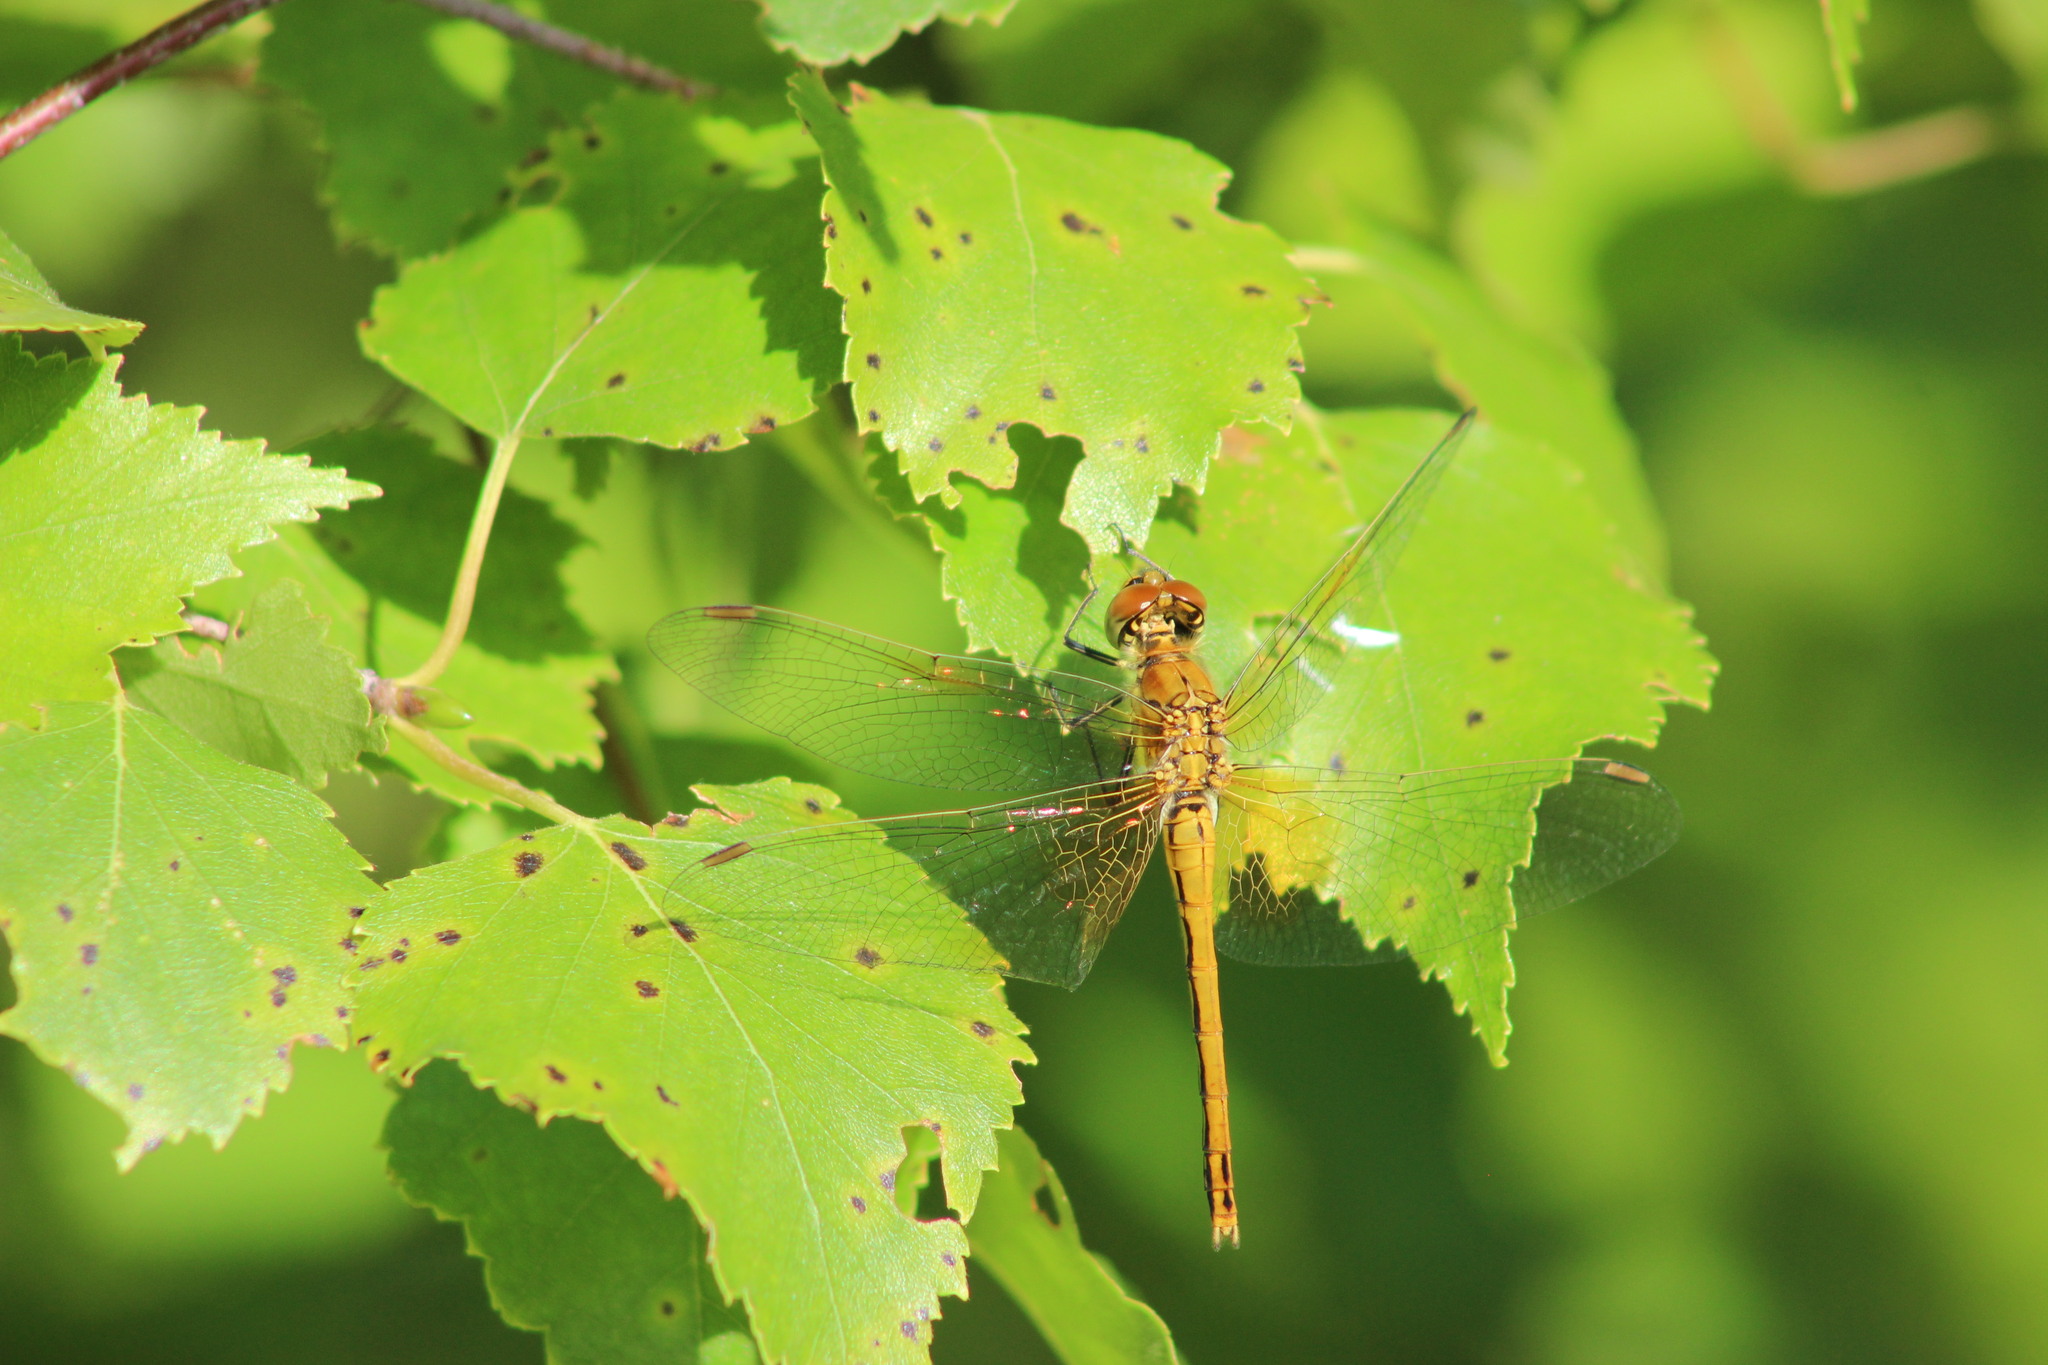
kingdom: Animalia
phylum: Arthropoda
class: Insecta
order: Odonata
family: Libellulidae
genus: Sympetrum
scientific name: Sympetrum flaveolum
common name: Yellow-winged darter
